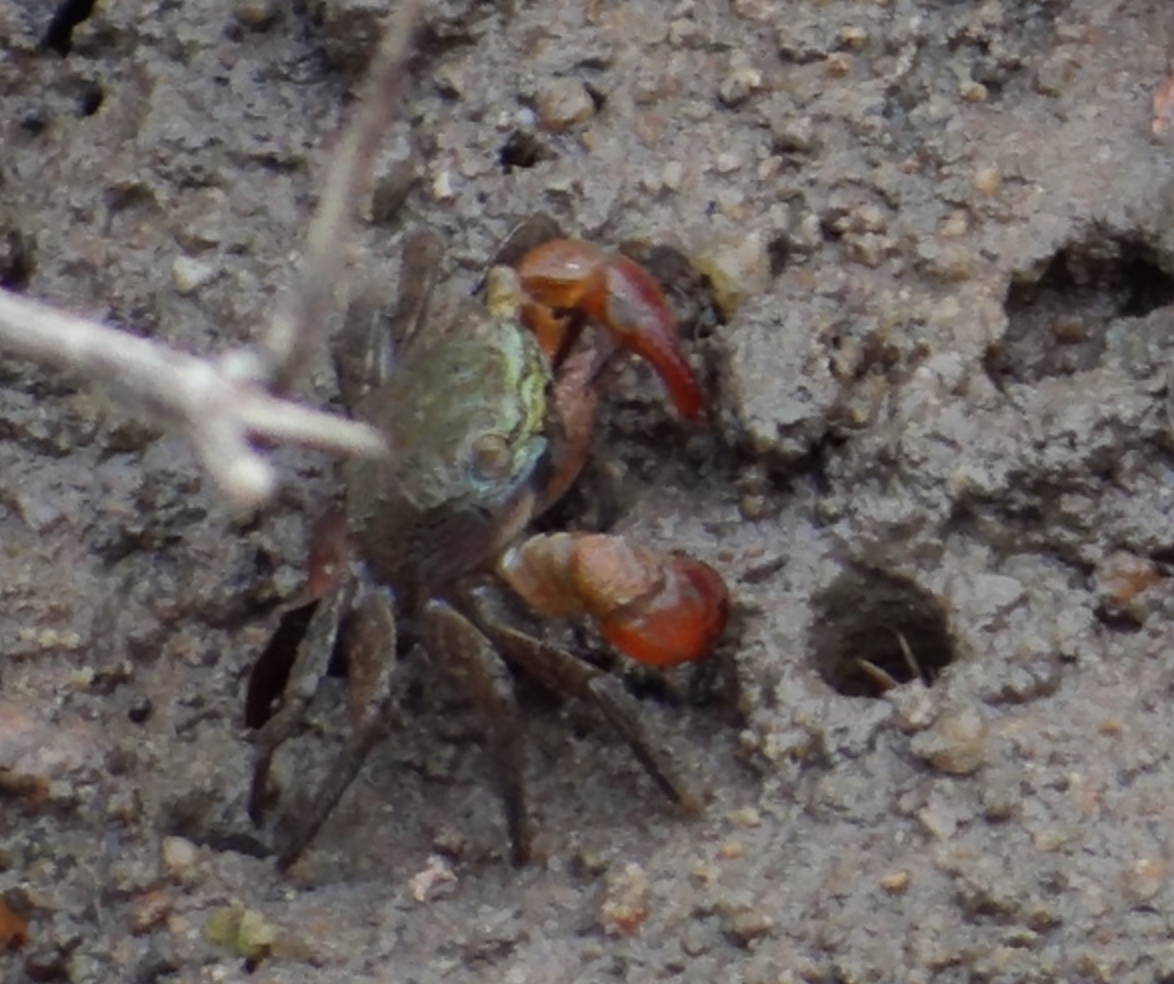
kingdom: Animalia
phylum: Arthropoda
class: Malacostraca
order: Decapoda
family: Sesarmidae
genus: Parasesarma
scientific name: Parasesarma continentale
